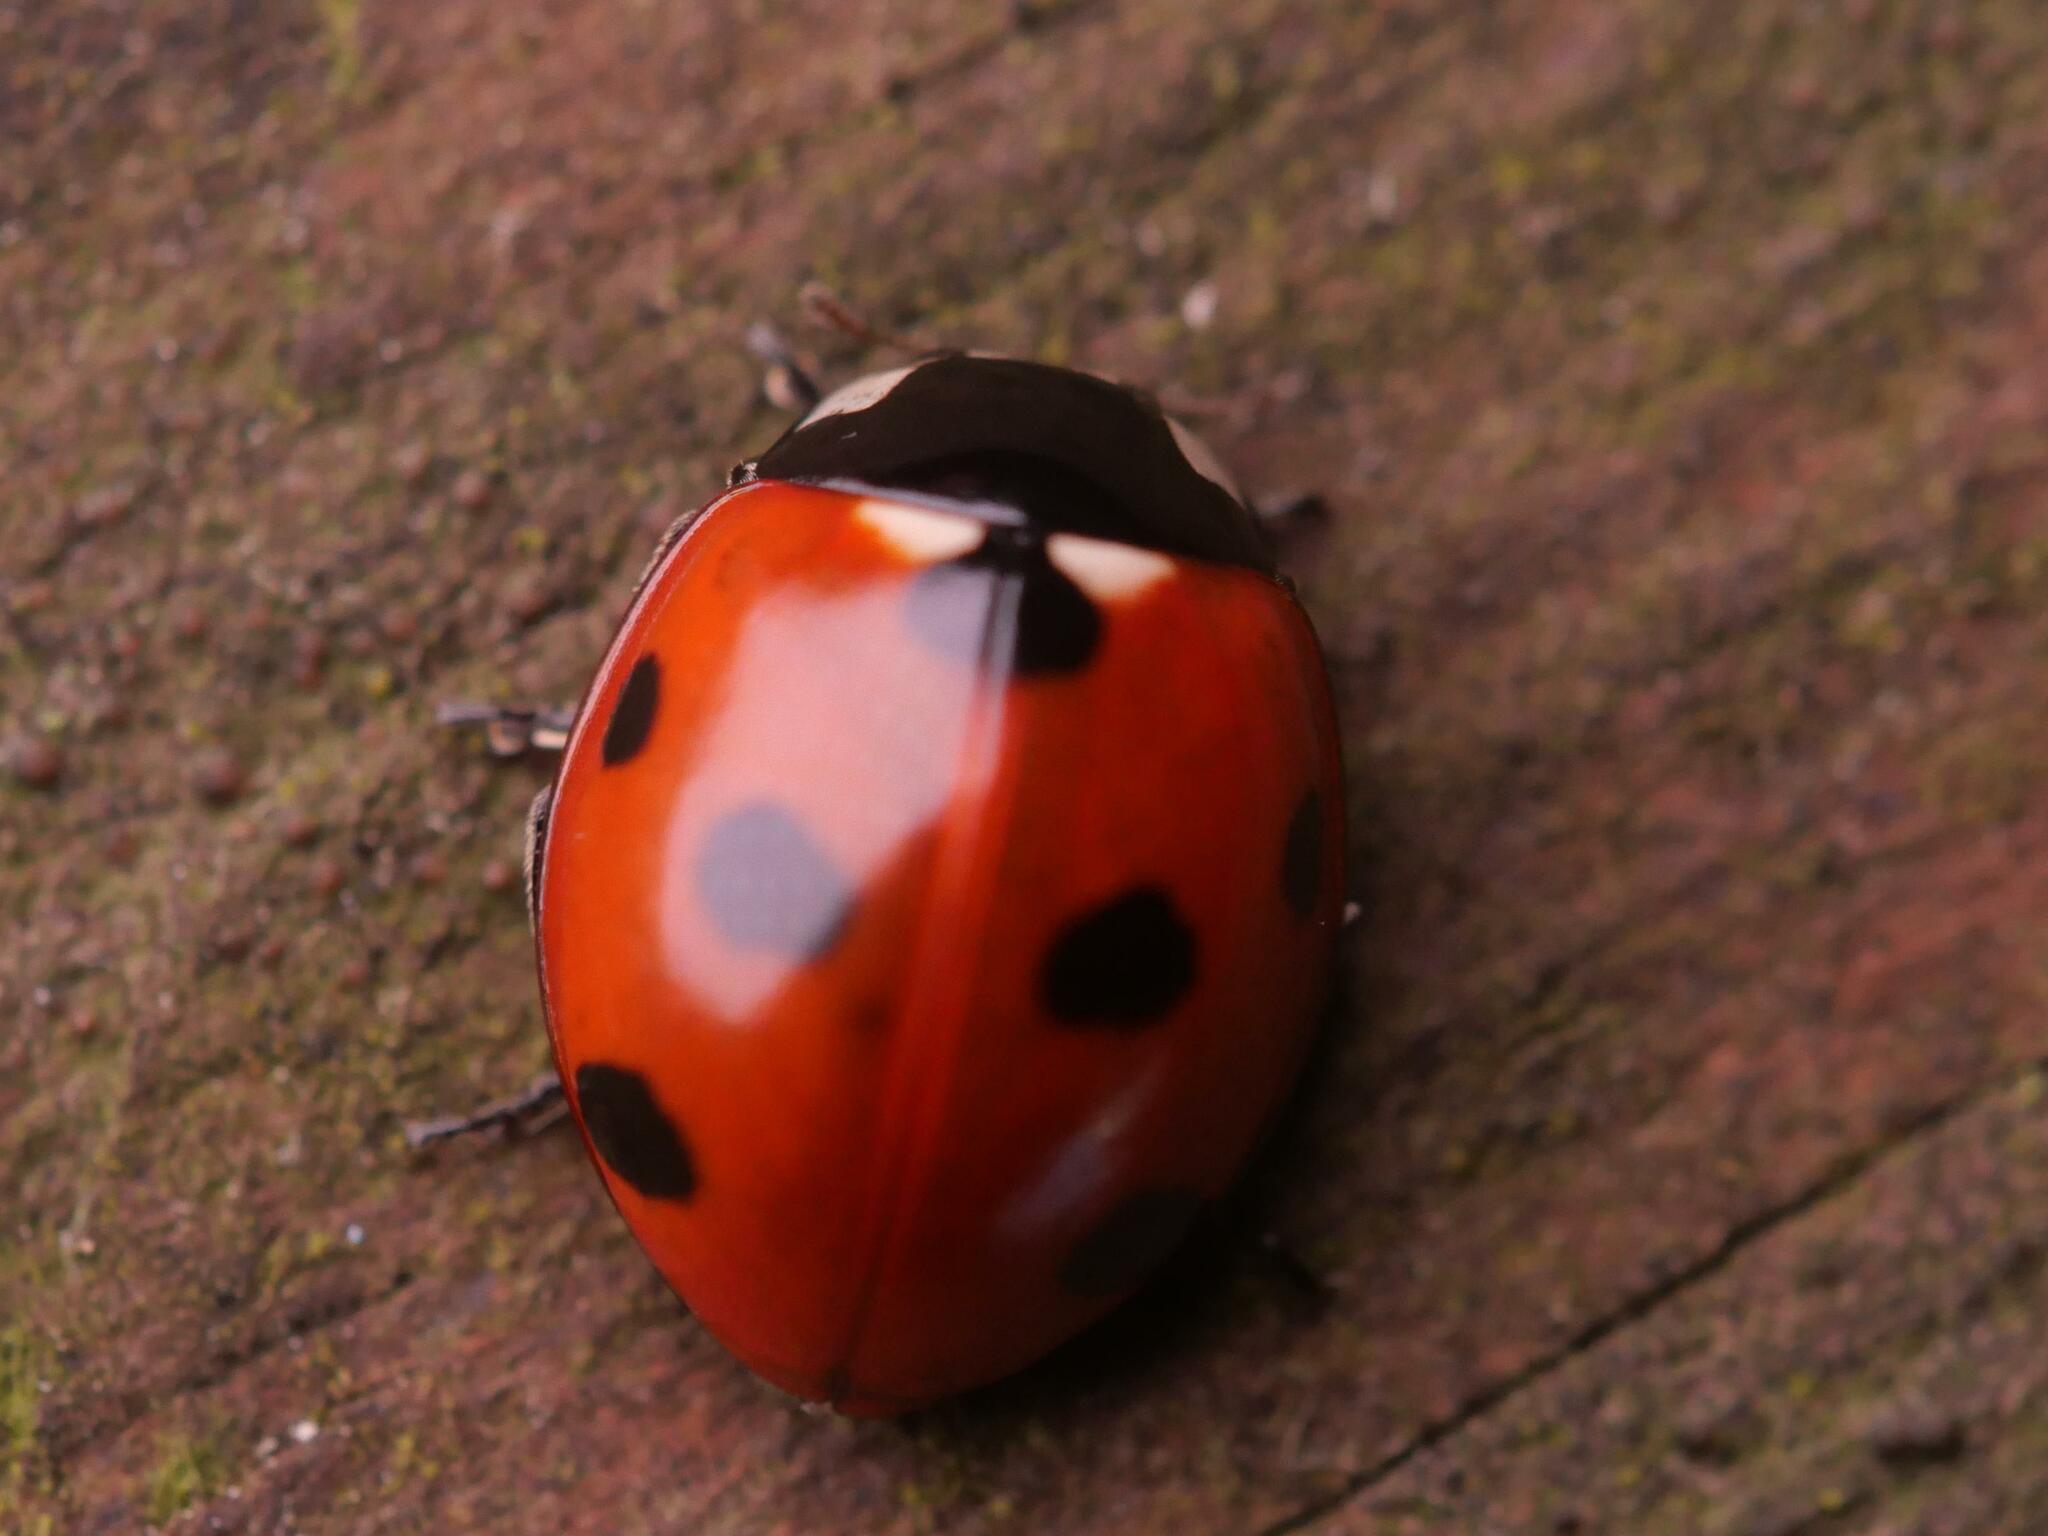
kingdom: Animalia
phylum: Arthropoda
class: Insecta
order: Coleoptera
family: Coccinellidae
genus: Coccinella
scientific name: Coccinella septempunctata
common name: Sevenspotted lady beetle
